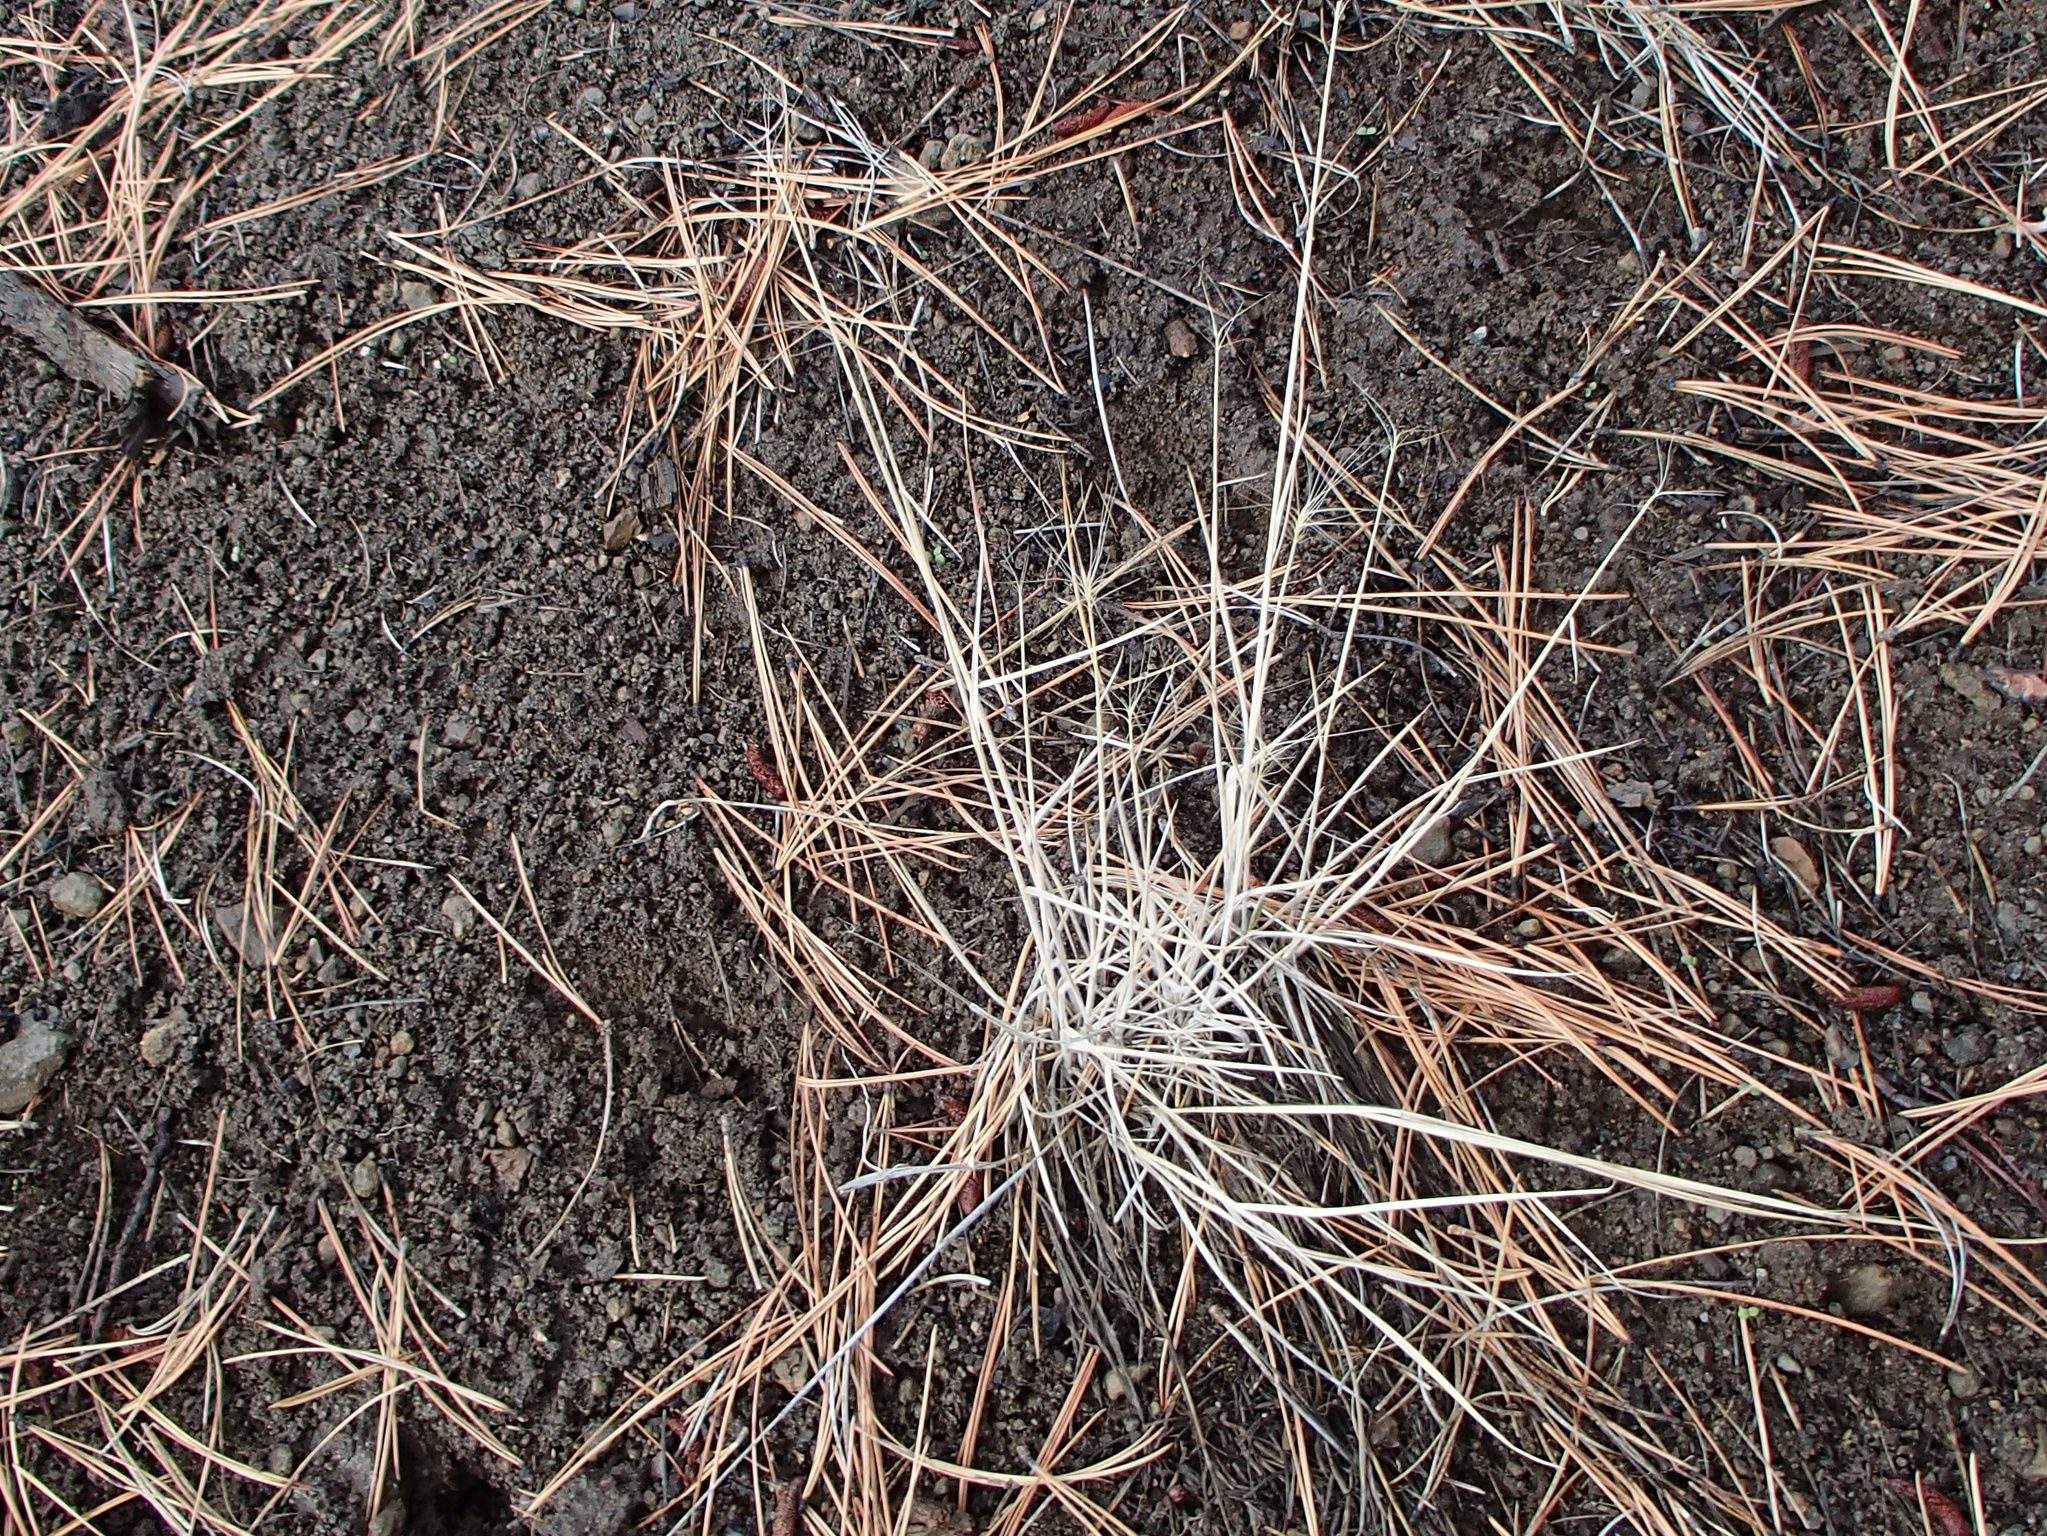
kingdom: Plantae
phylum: Tracheophyta
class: Liliopsida
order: Poales
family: Poaceae
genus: Elymus
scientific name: Elymus elymoides
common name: Bottlebrush squirreltail
